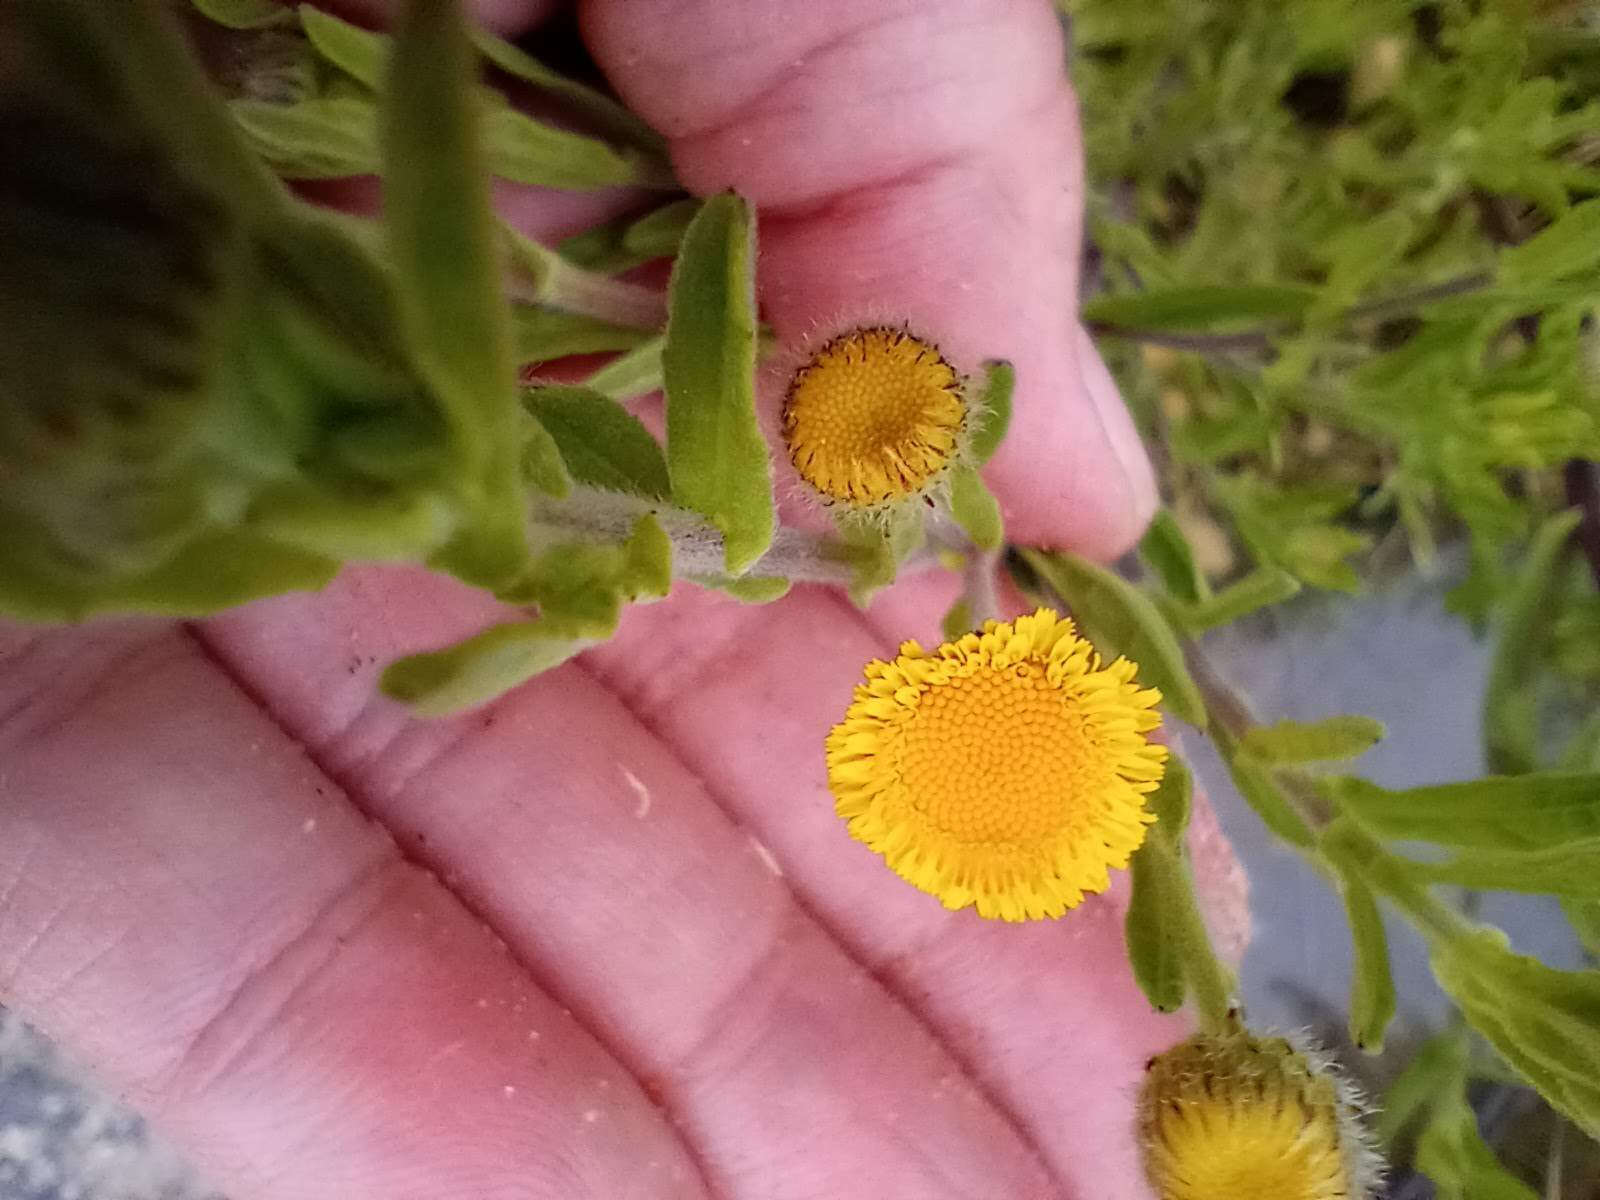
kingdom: Plantae
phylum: Tracheophyta
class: Magnoliopsida
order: Asterales
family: Asteraceae
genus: Pulicaria
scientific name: Pulicaria paludosa
